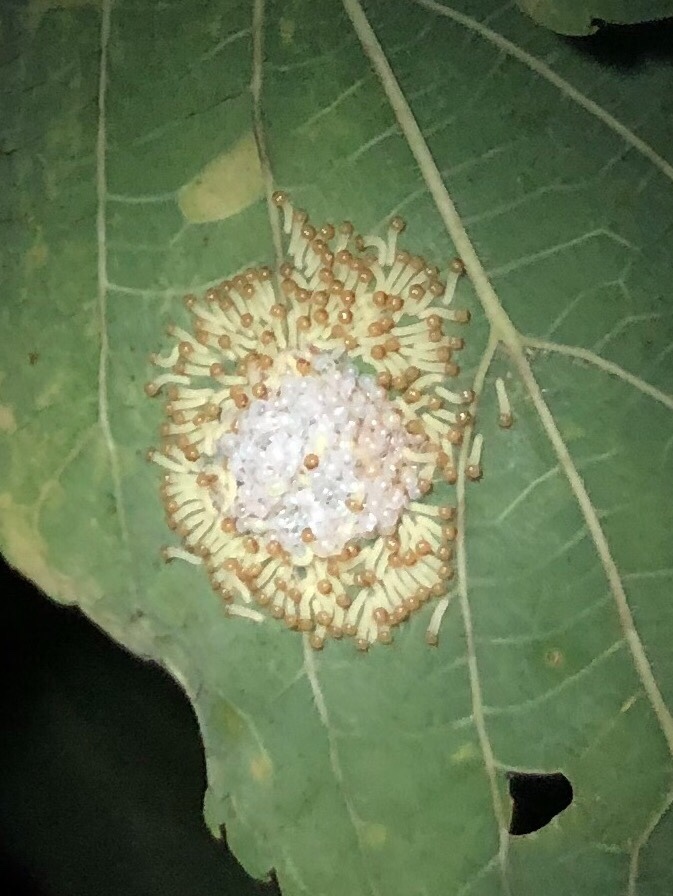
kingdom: Animalia
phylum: Arthropoda
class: Insecta
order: Lepidoptera
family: Nymphalidae
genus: Asterocampa
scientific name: Asterocampa clyton
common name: Tawny emperor
